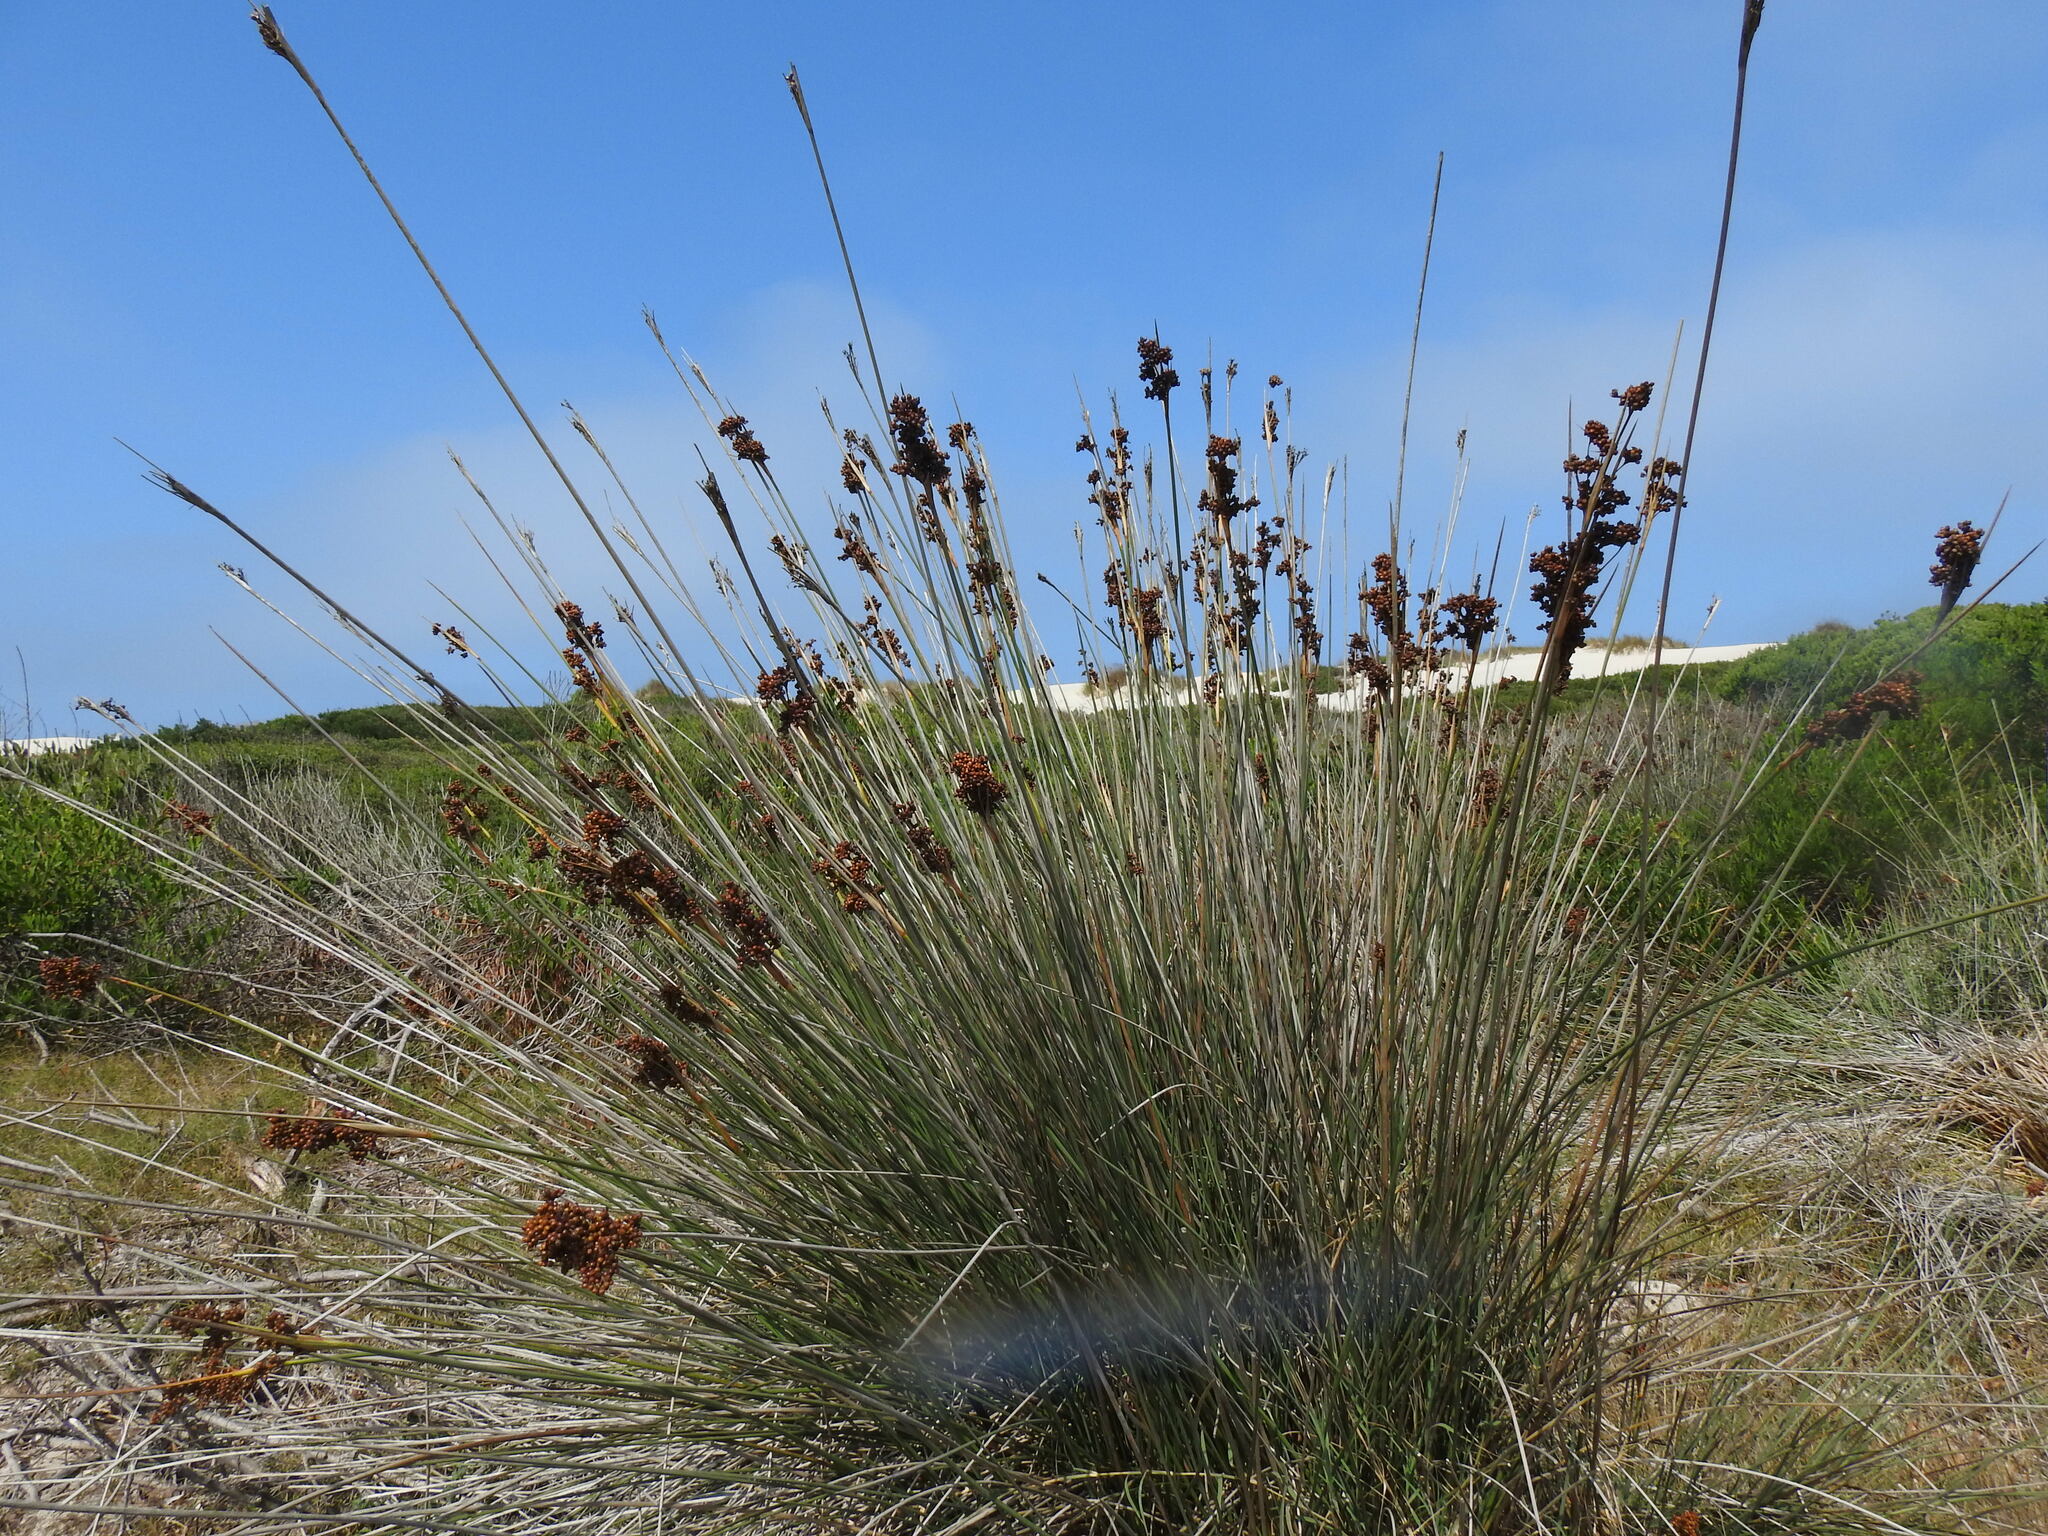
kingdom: Plantae
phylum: Tracheophyta
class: Liliopsida
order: Poales
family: Juncaceae
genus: Juncus
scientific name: Juncus acutus
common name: Sharp rush
